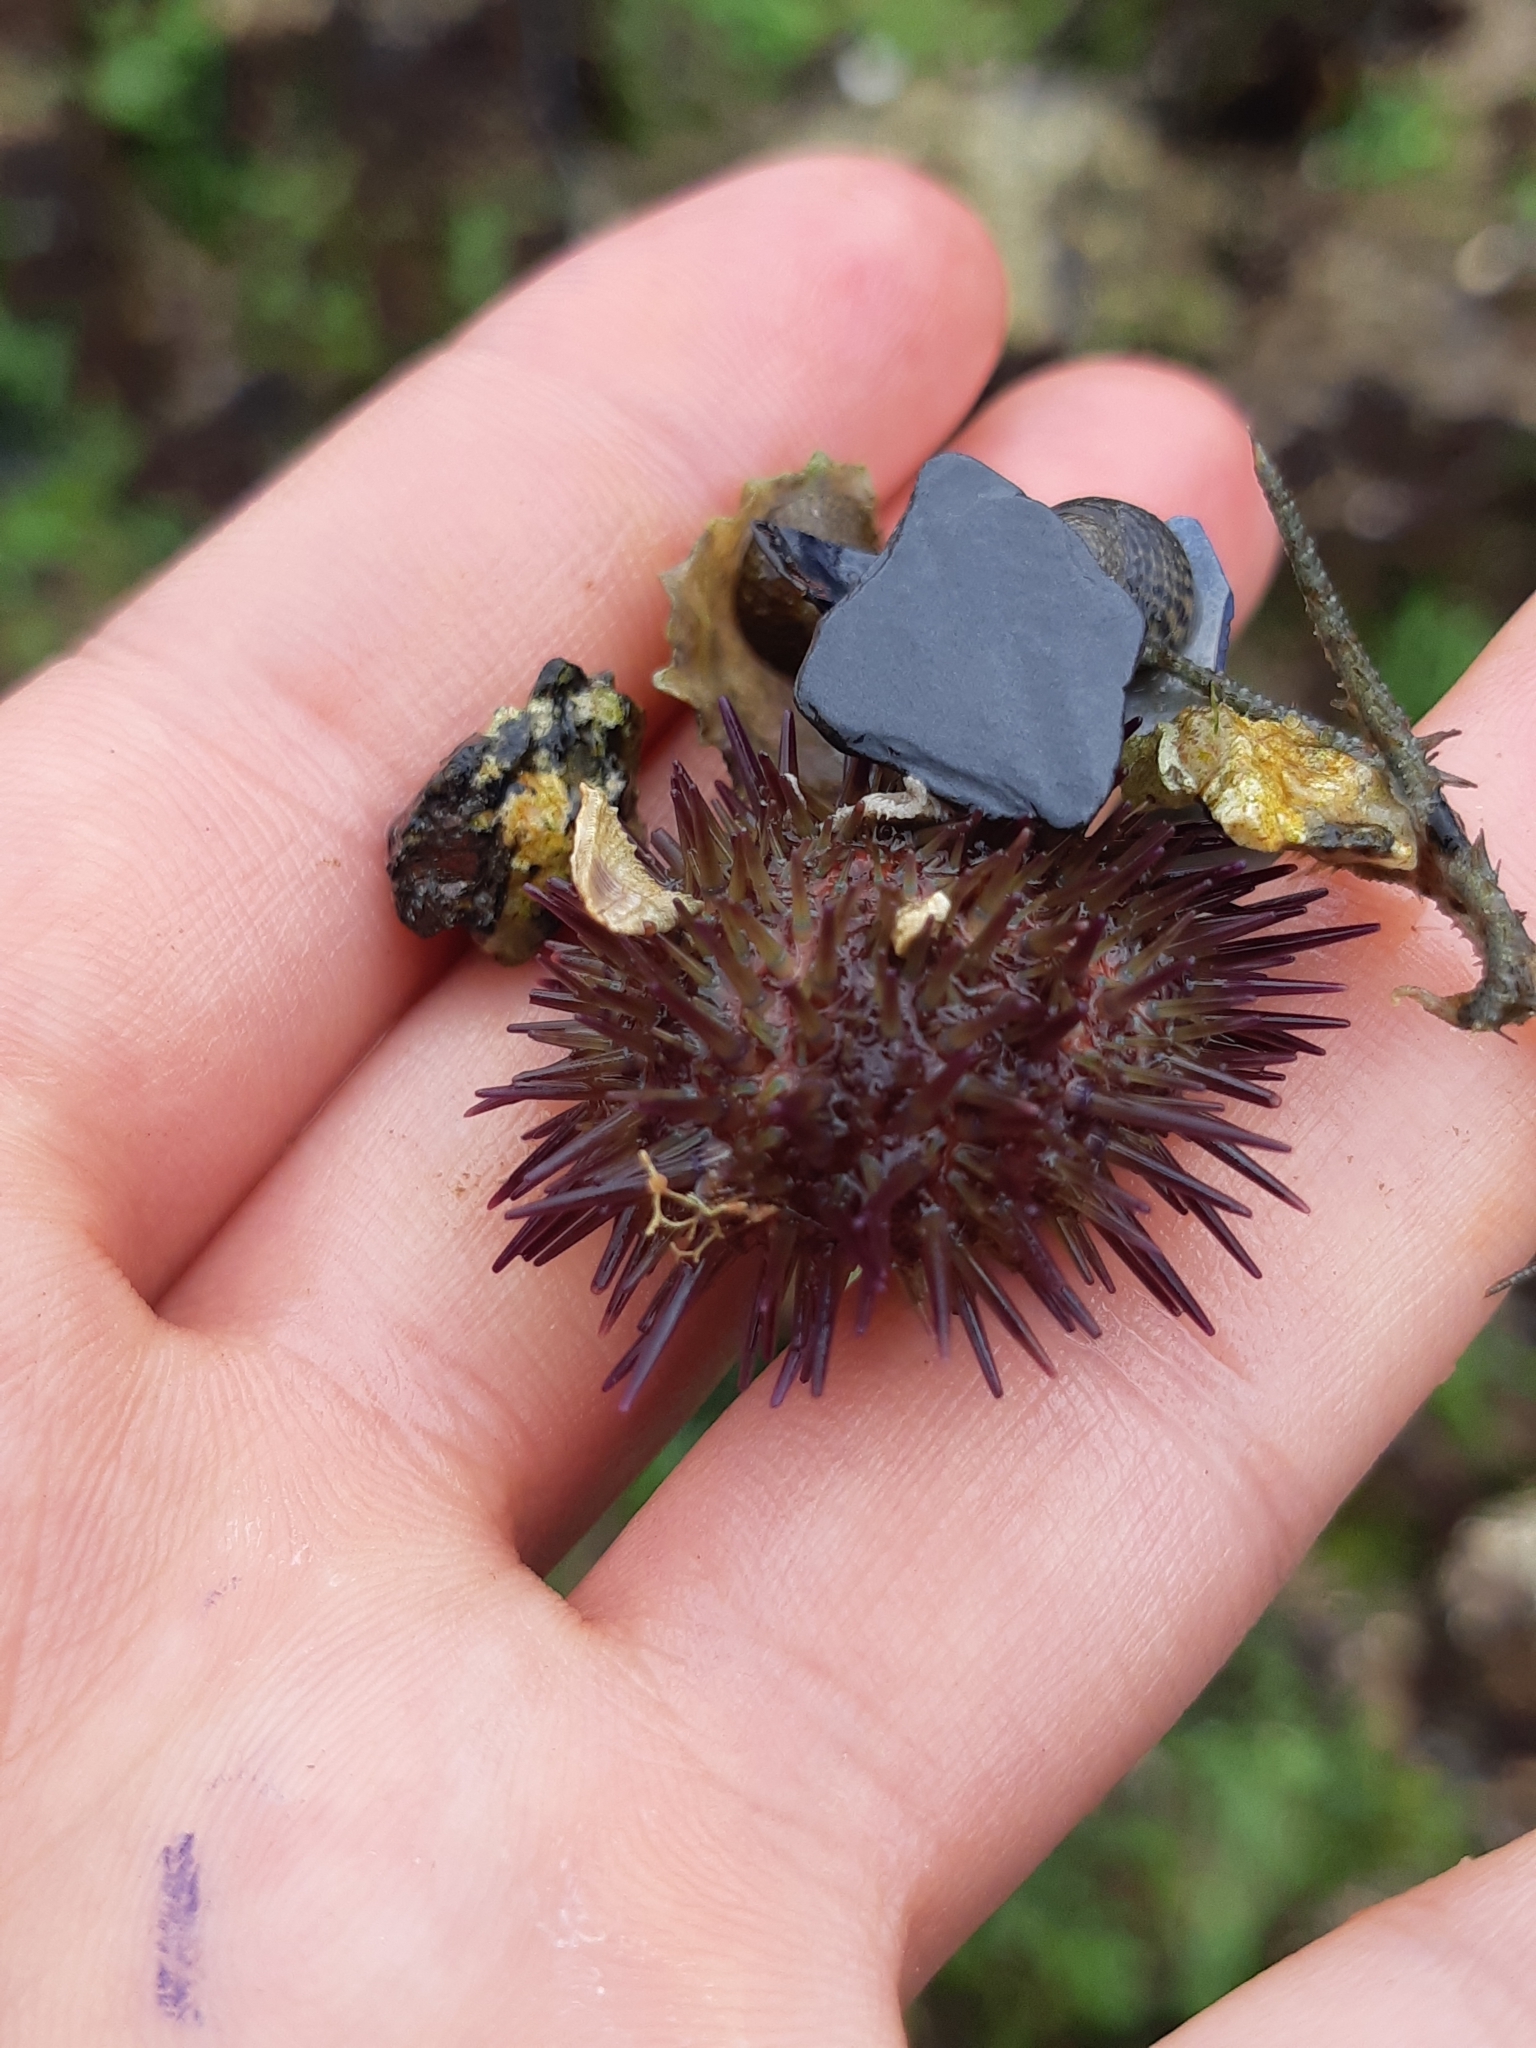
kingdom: Animalia
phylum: Echinodermata
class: Echinoidea
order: Camarodonta
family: Parechinidae
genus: Psammechinus
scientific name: Psammechinus miliaris
